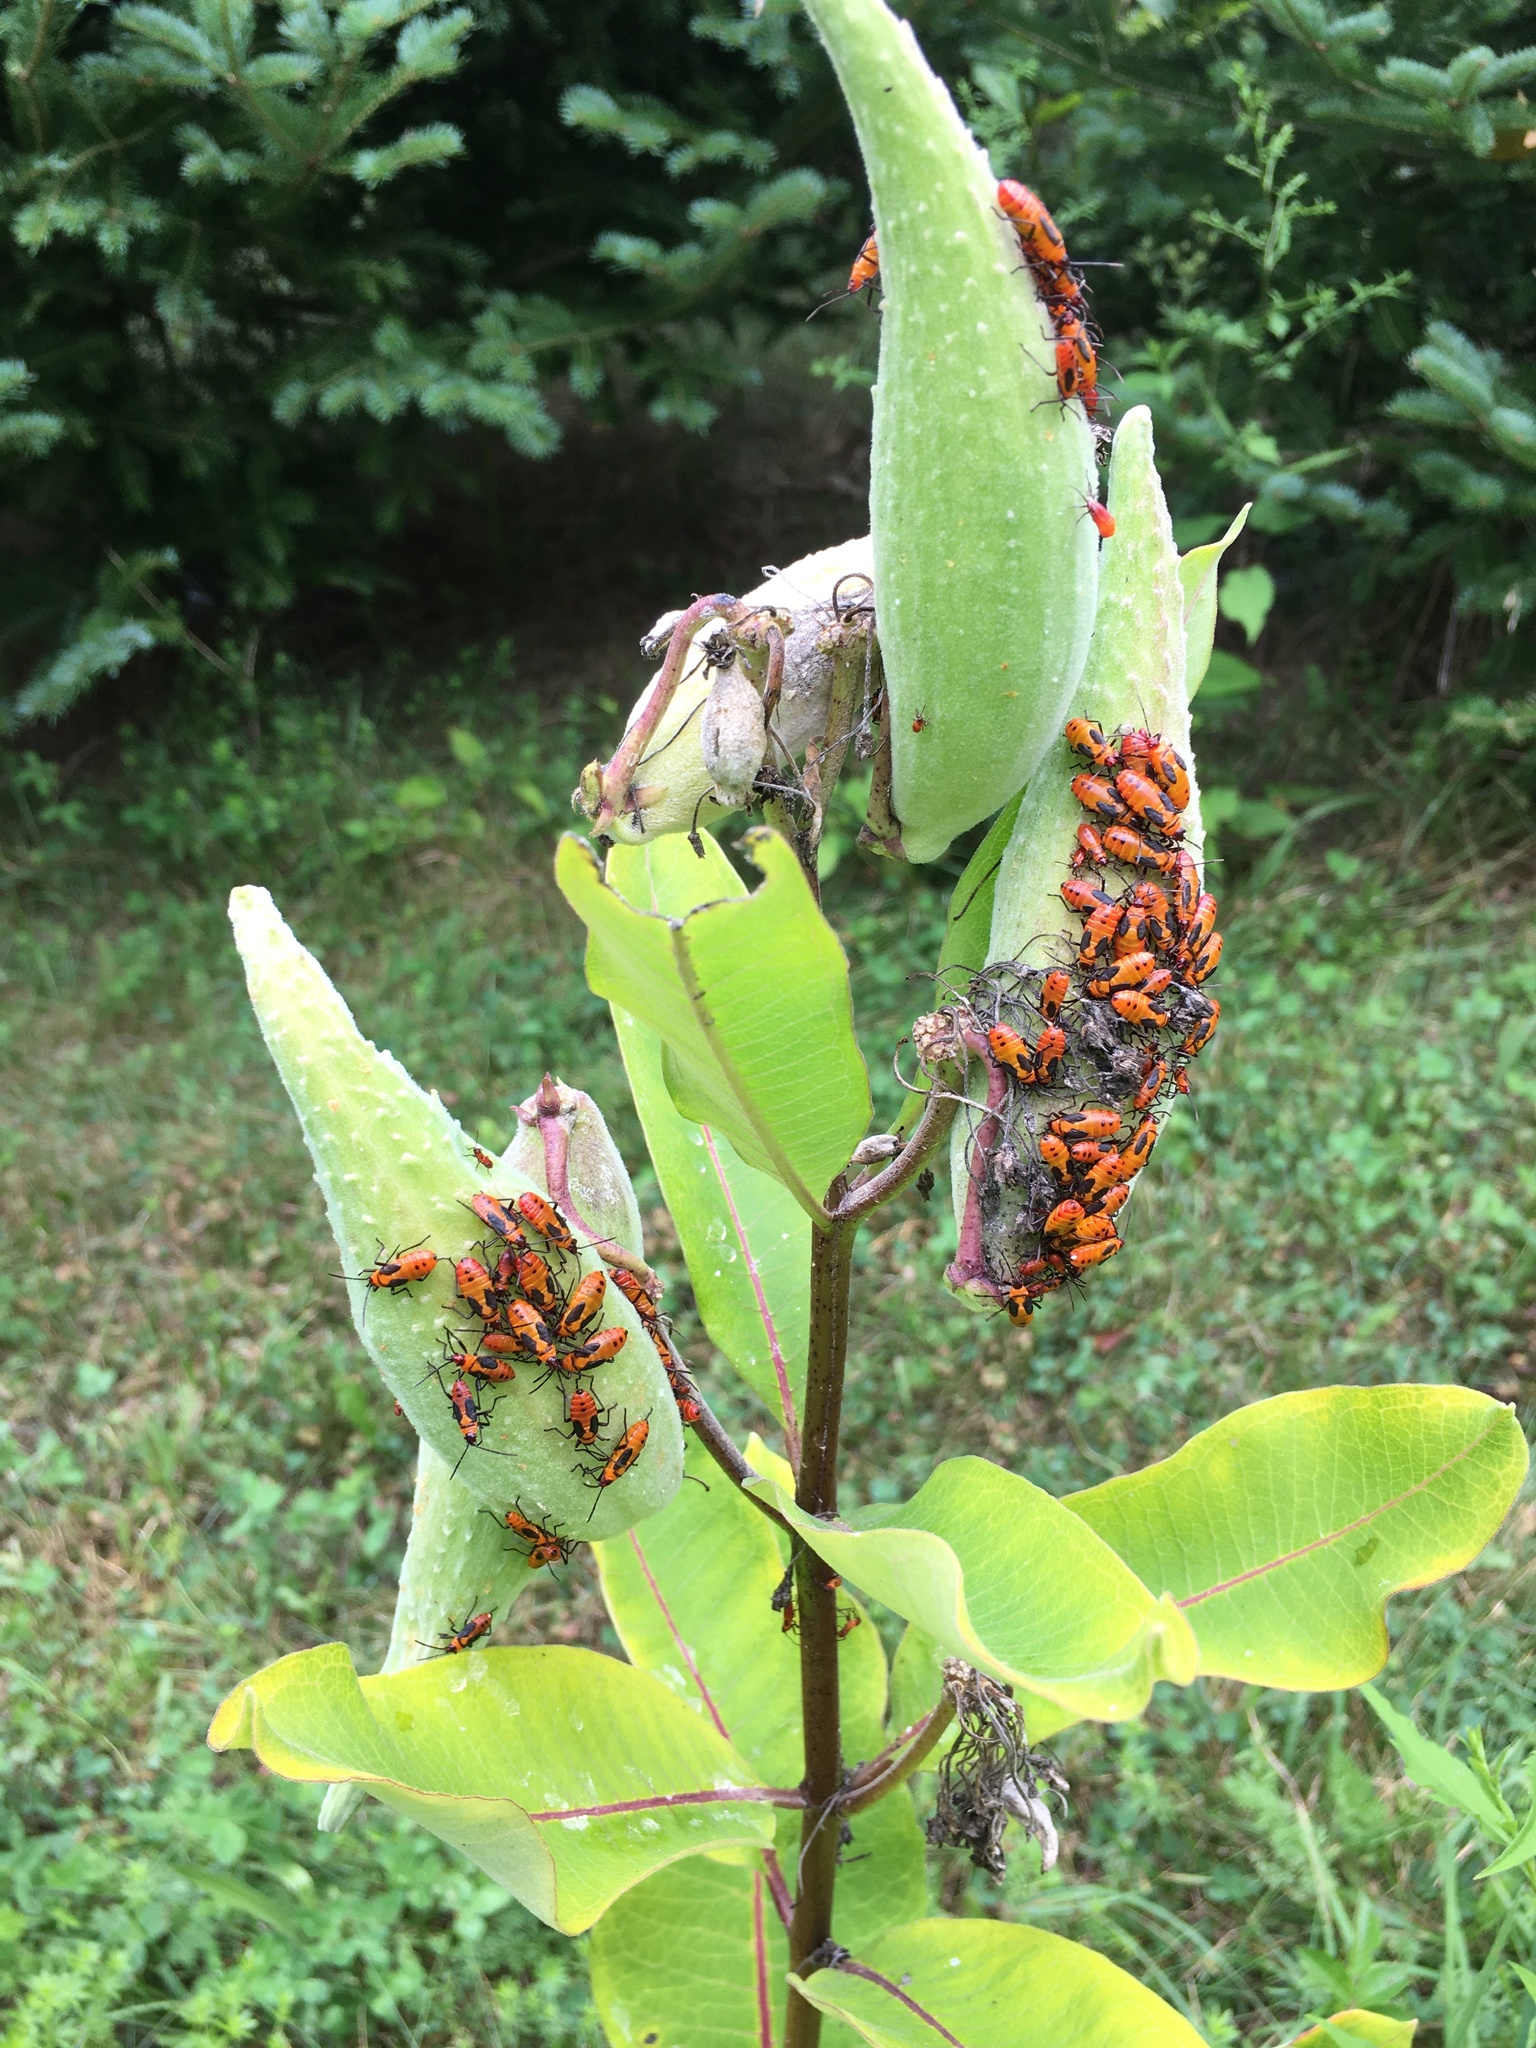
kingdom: Animalia
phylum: Arthropoda
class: Insecta
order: Hemiptera
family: Lygaeidae
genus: Oncopeltus
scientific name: Oncopeltus fasciatus
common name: Large milkweed bug
